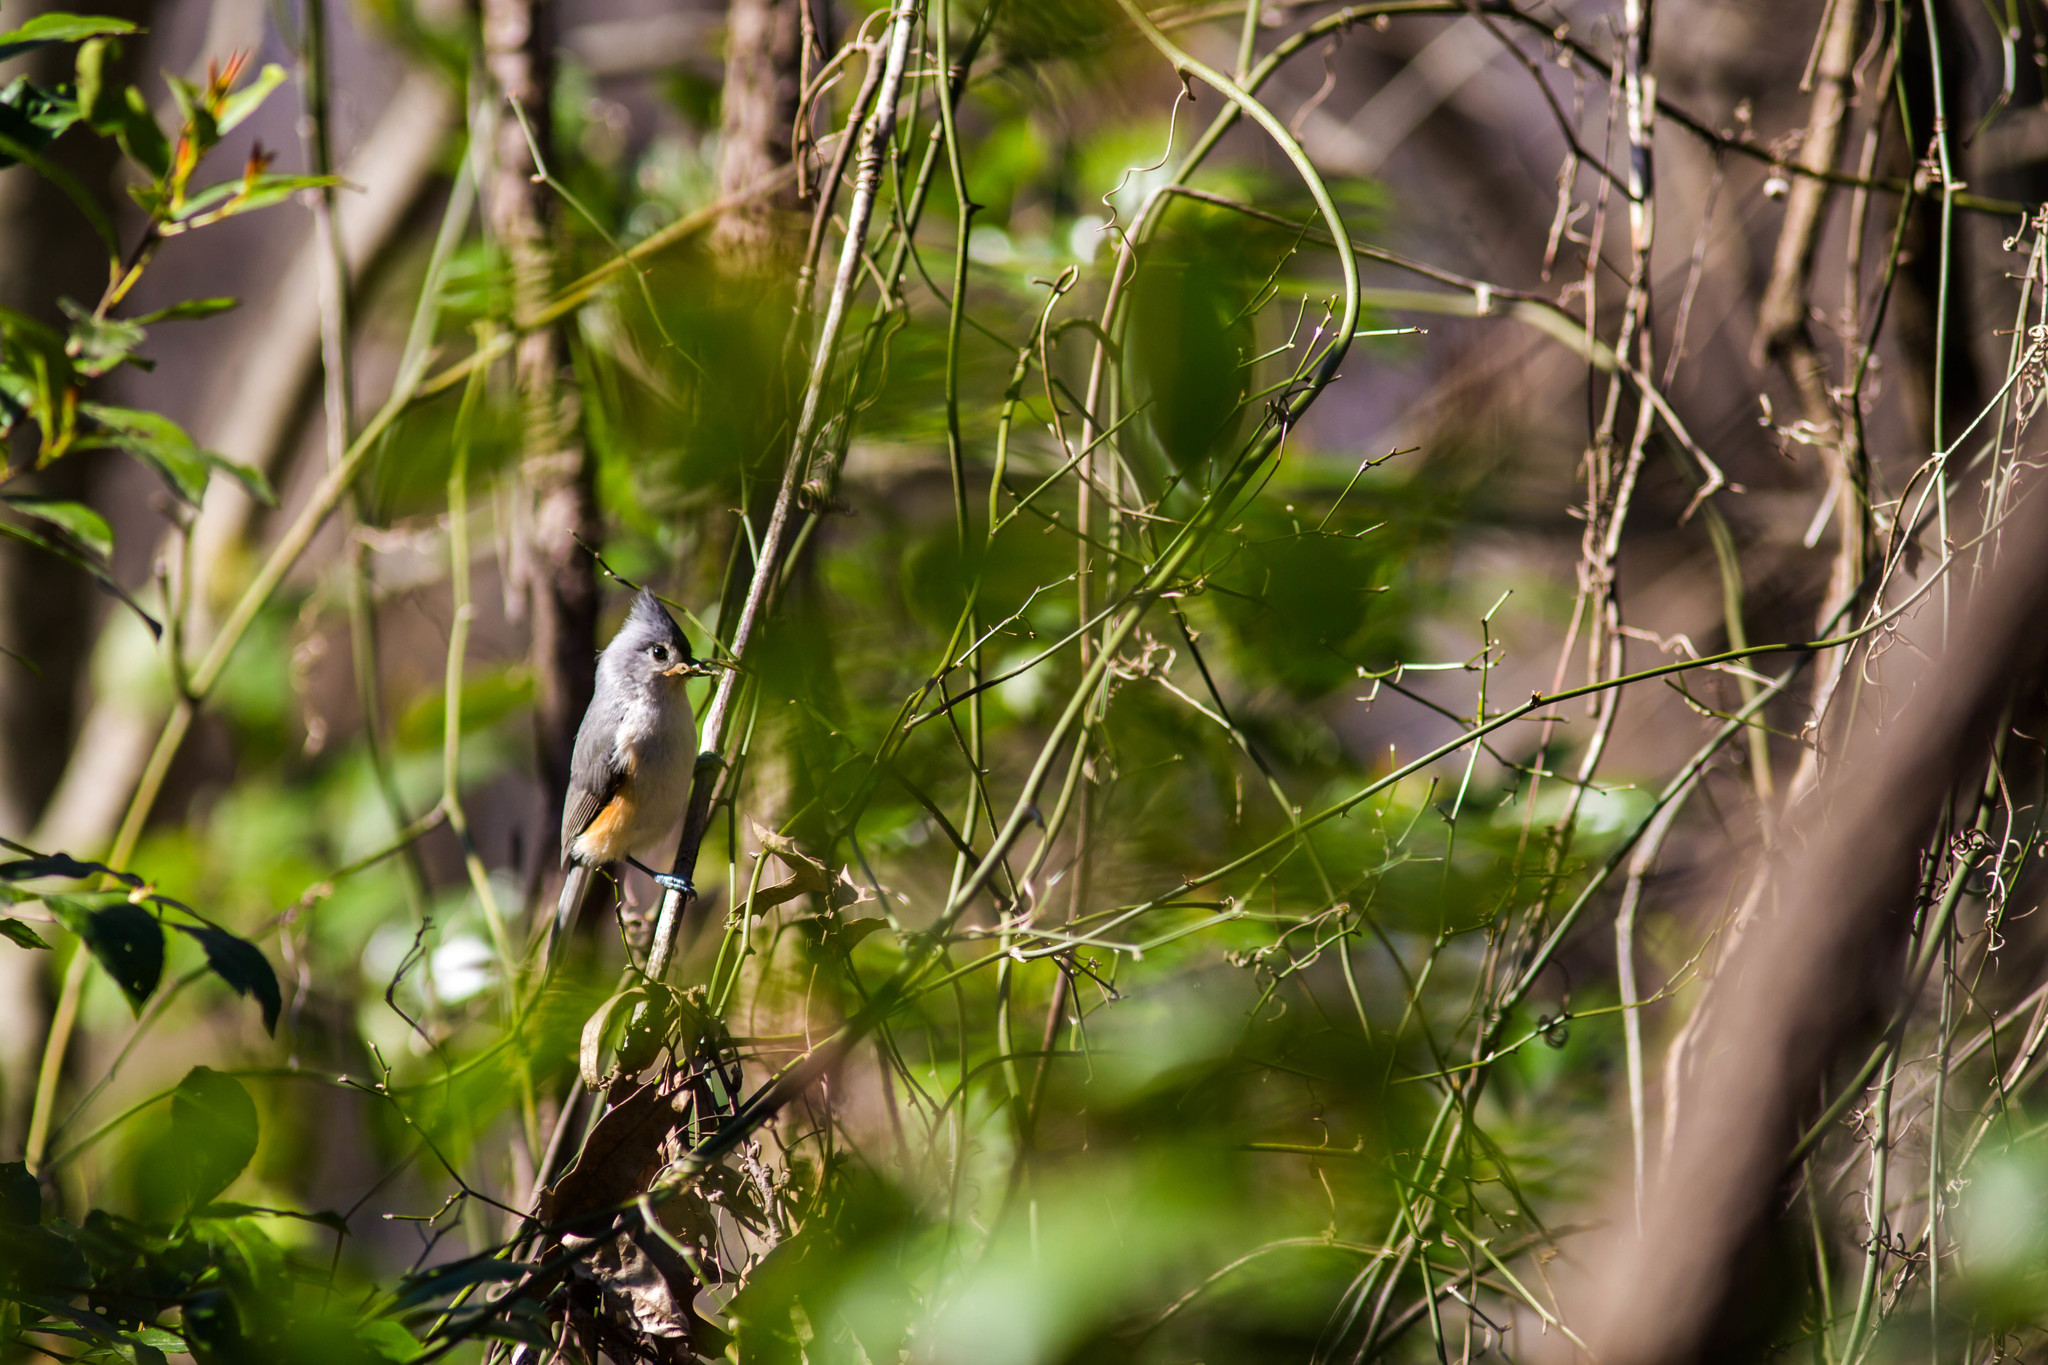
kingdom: Animalia
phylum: Chordata
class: Aves
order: Passeriformes
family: Paridae
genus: Baeolophus
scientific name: Baeolophus bicolor
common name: Tufted titmouse
